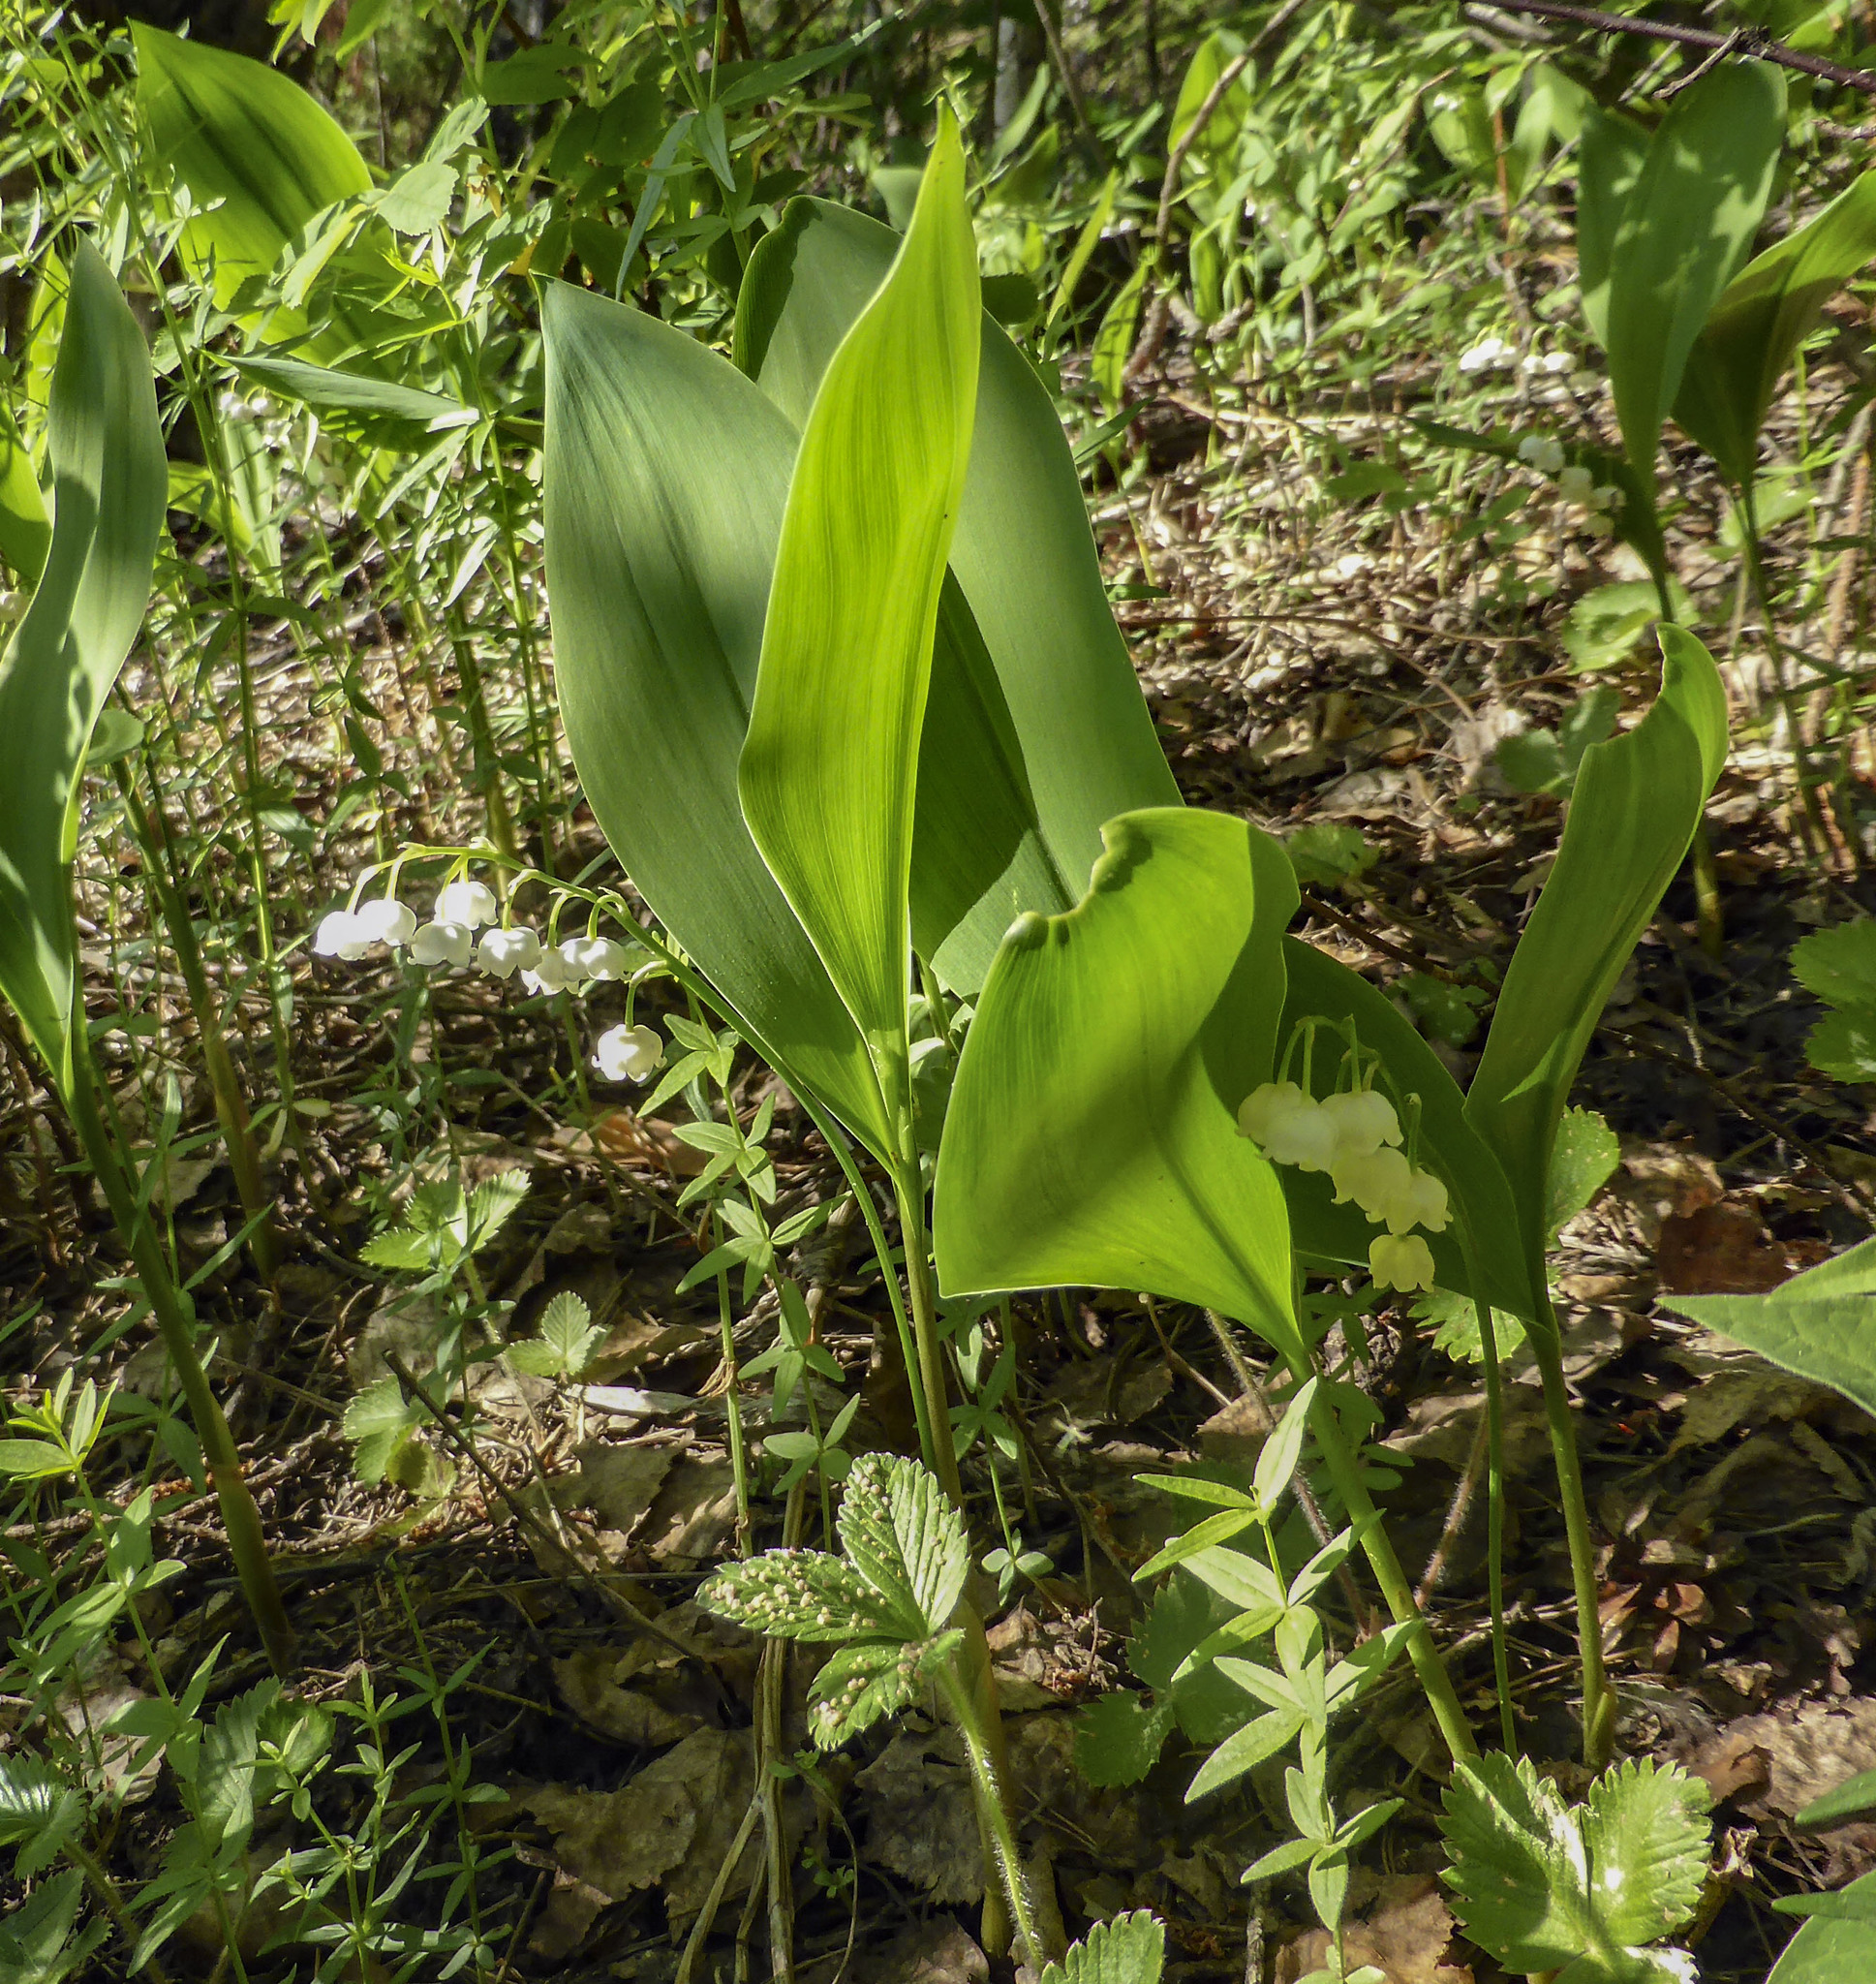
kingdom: Plantae
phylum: Tracheophyta
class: Liliopsida
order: Asparagales
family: Asparagaceae
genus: Convallaria
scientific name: Convallaria majalis
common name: Lily-of-the-valley
